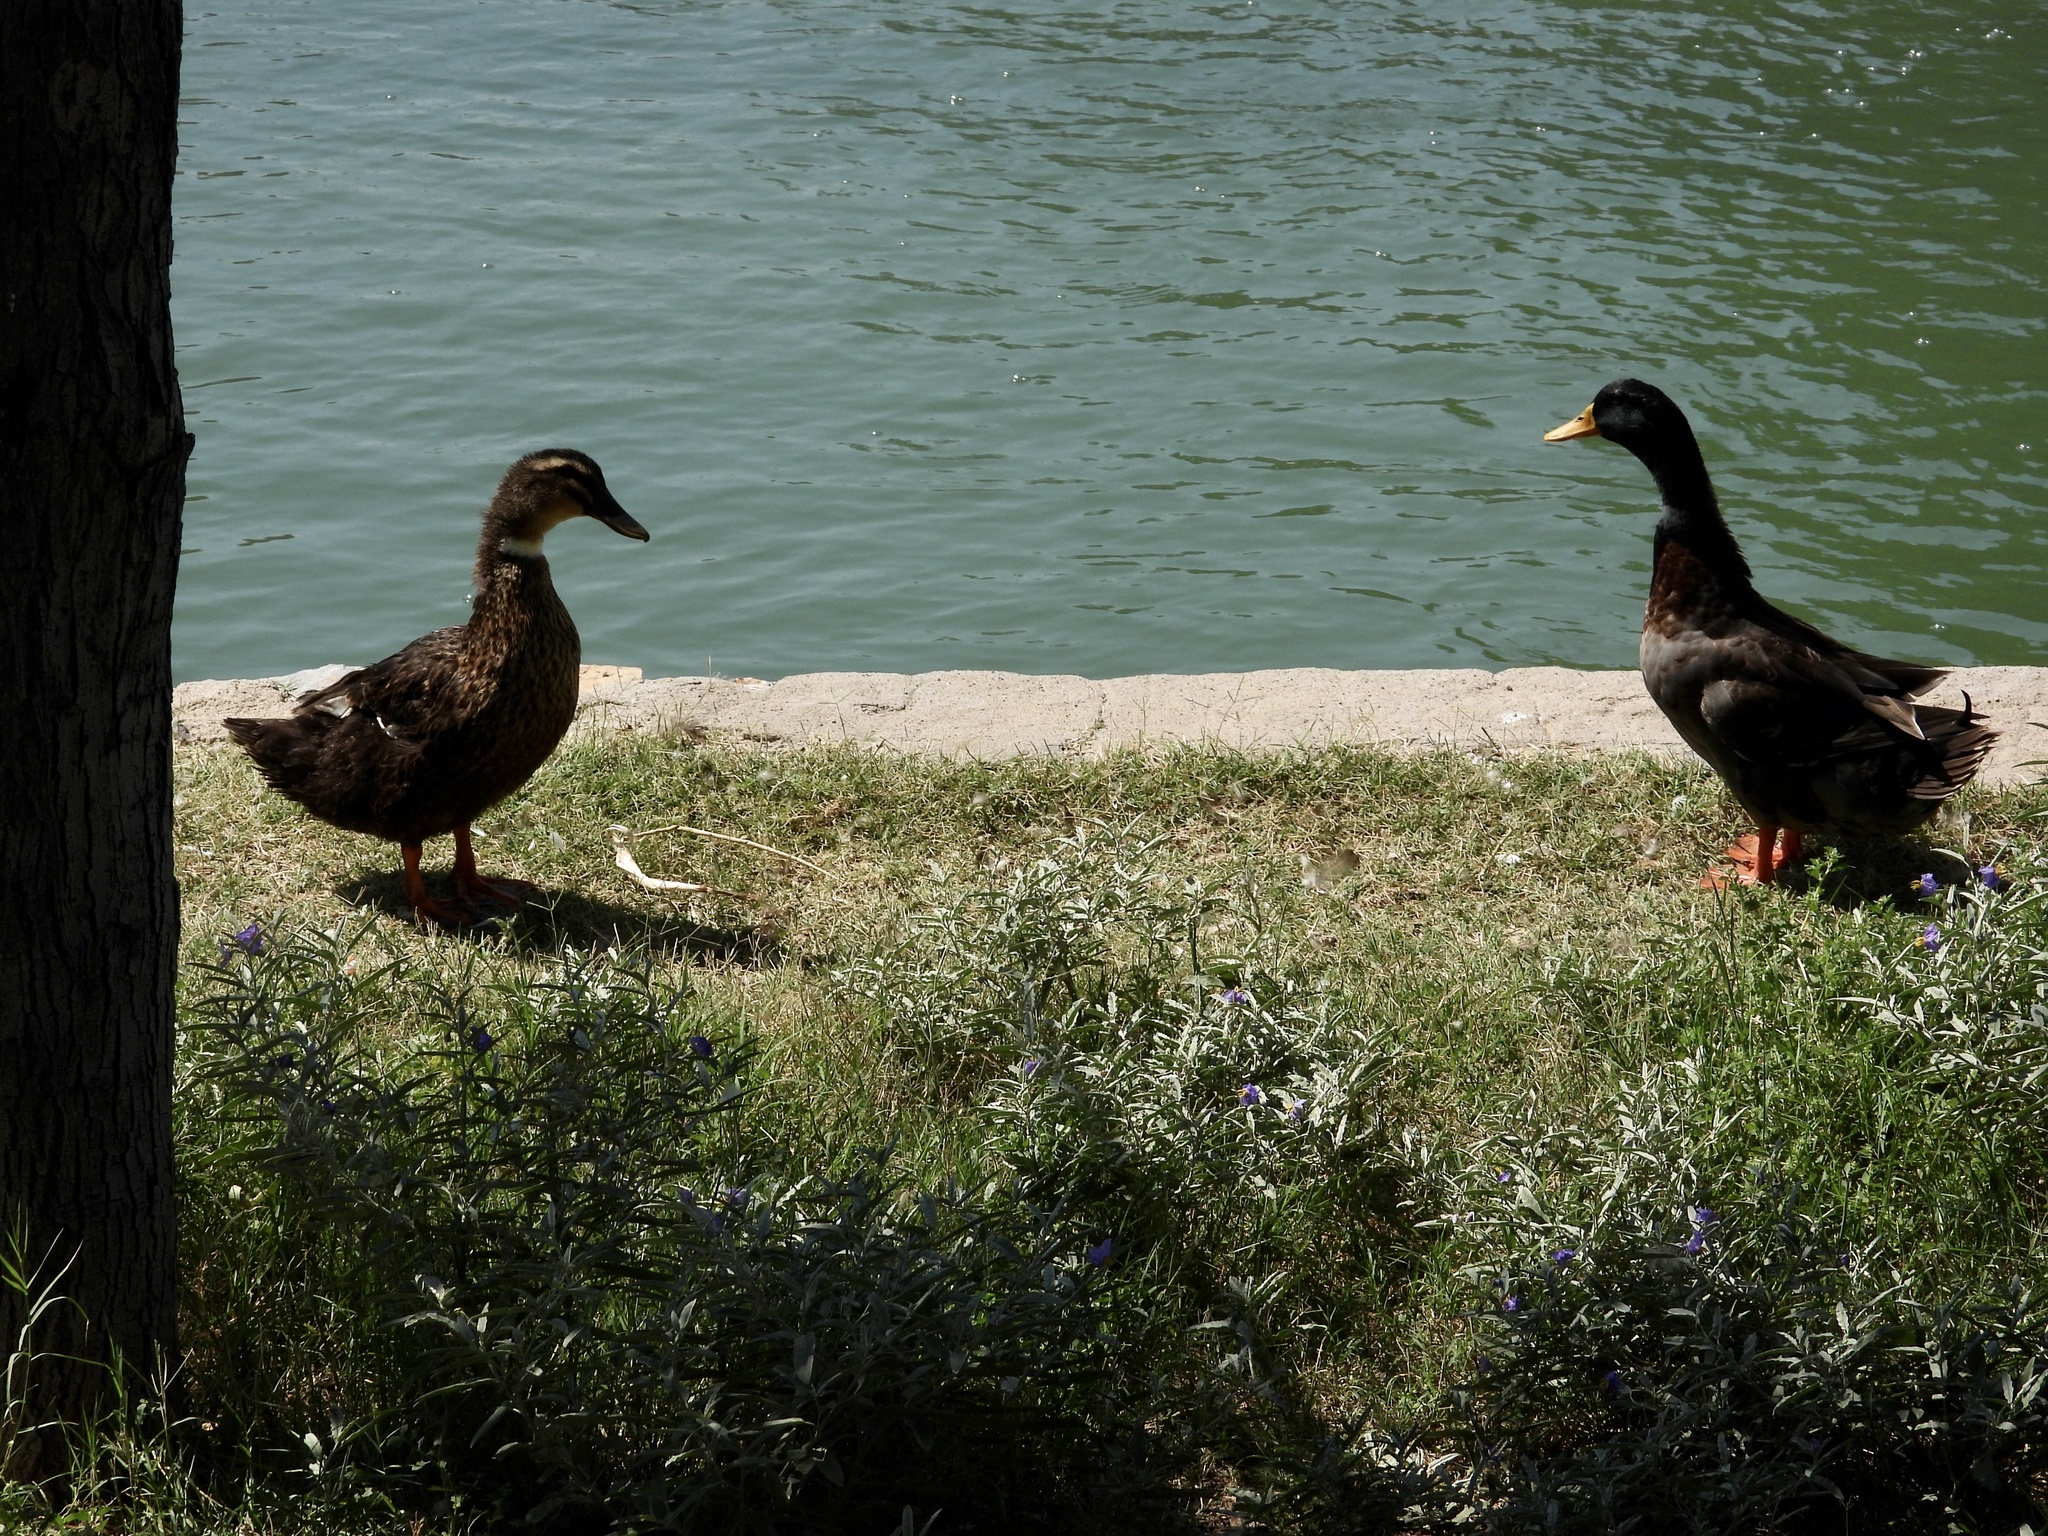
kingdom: Animalia
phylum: Chordata
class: Aves
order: Anseriformes
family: Anatidae
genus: Anas
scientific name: Anas platyrhynchos
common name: Mallard
